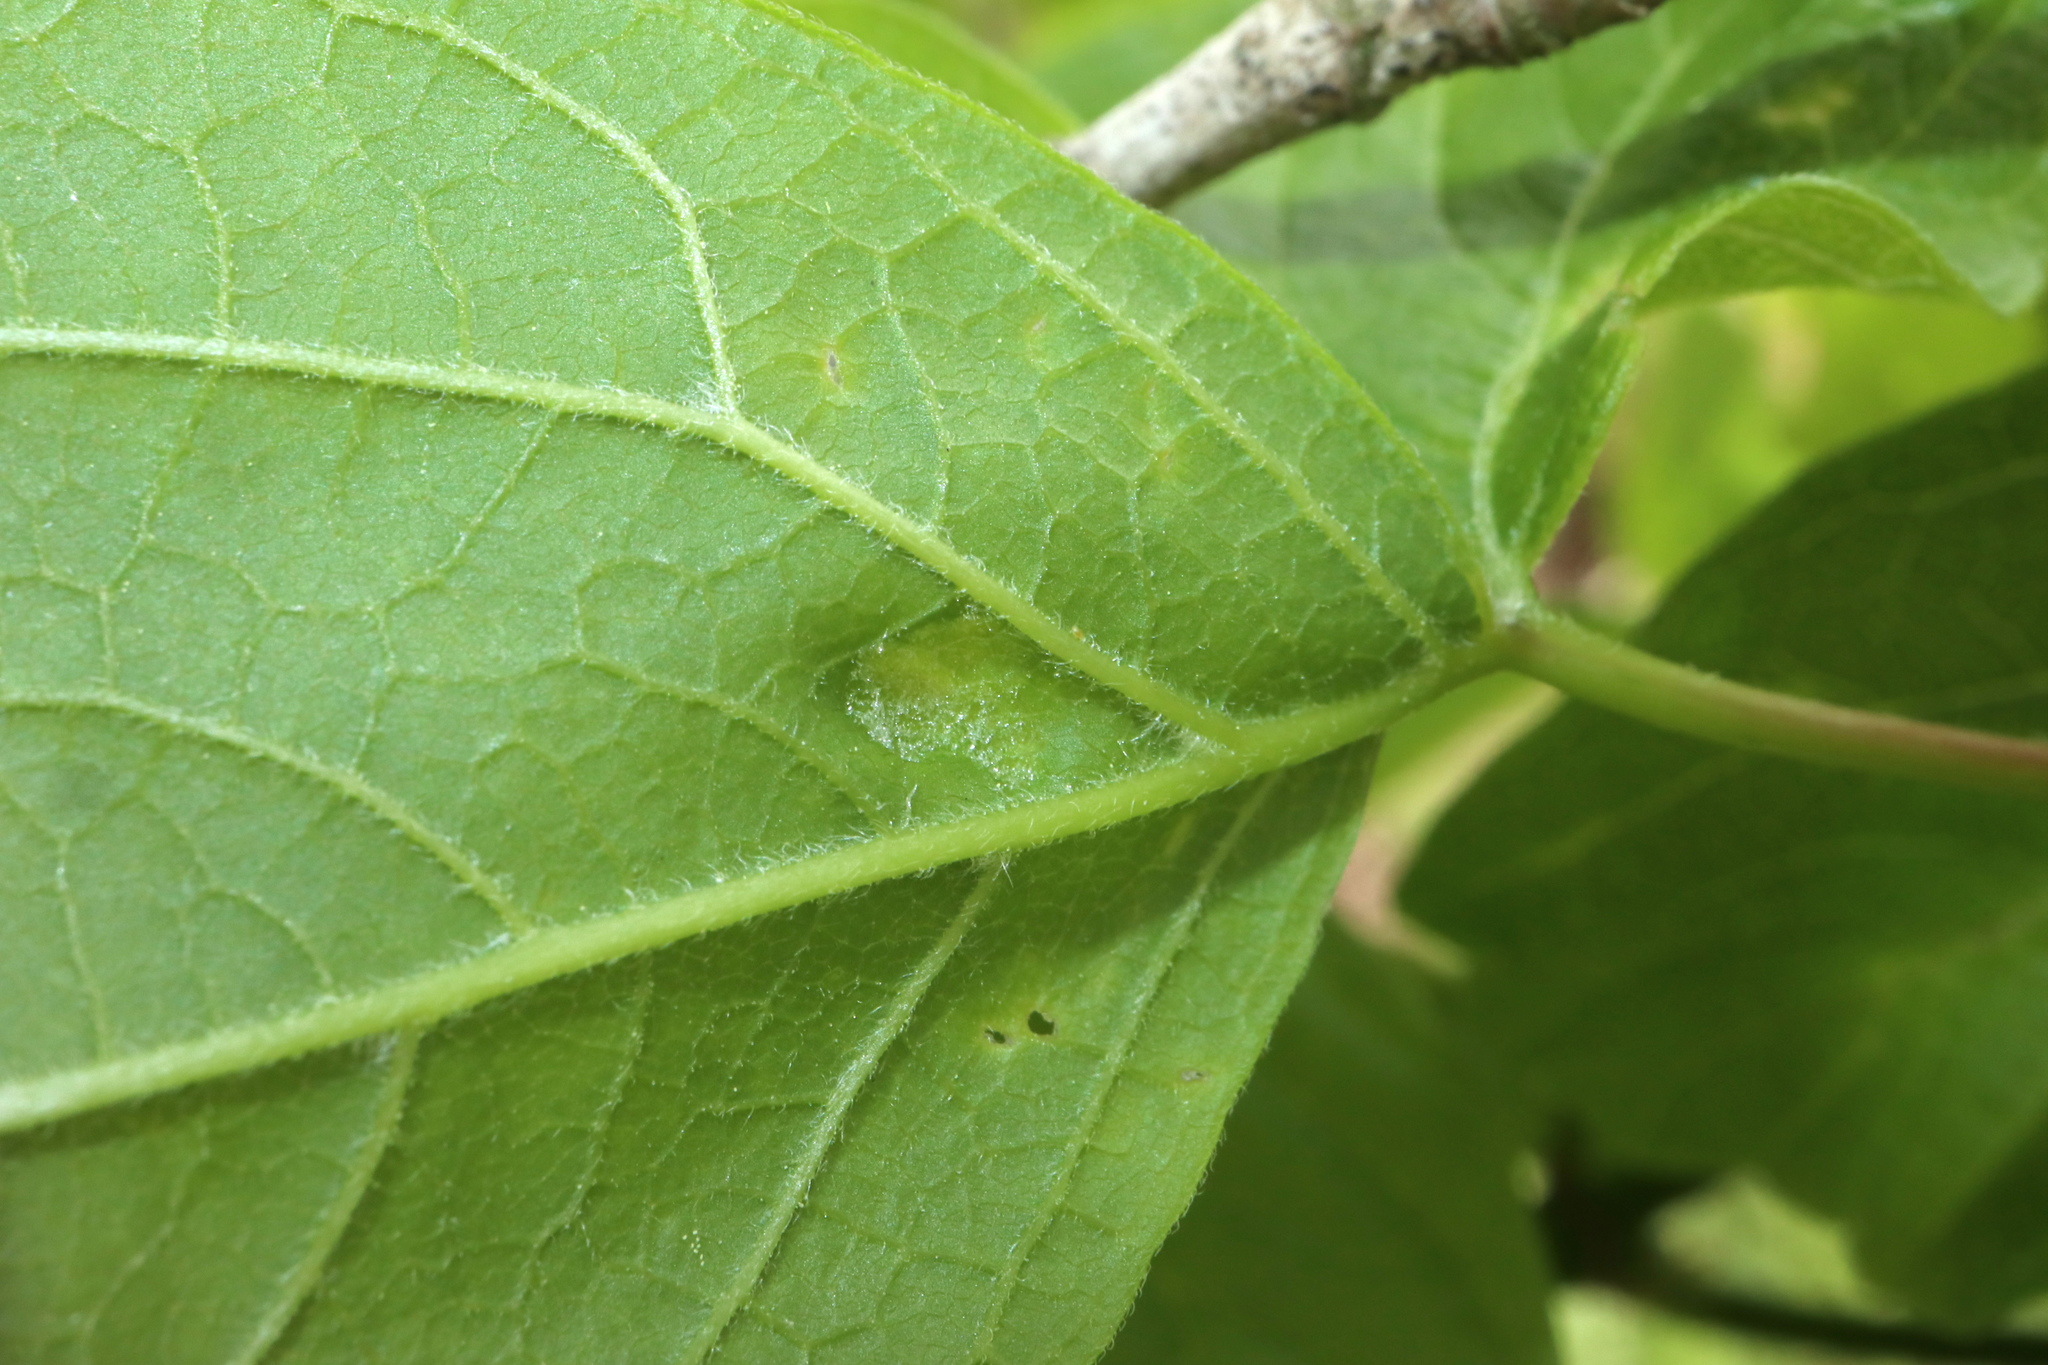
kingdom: Animalia
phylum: Arthropoda
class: Arachnida
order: Trombidiformes
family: Eriophyidae
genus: Aceria
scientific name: Aceria
